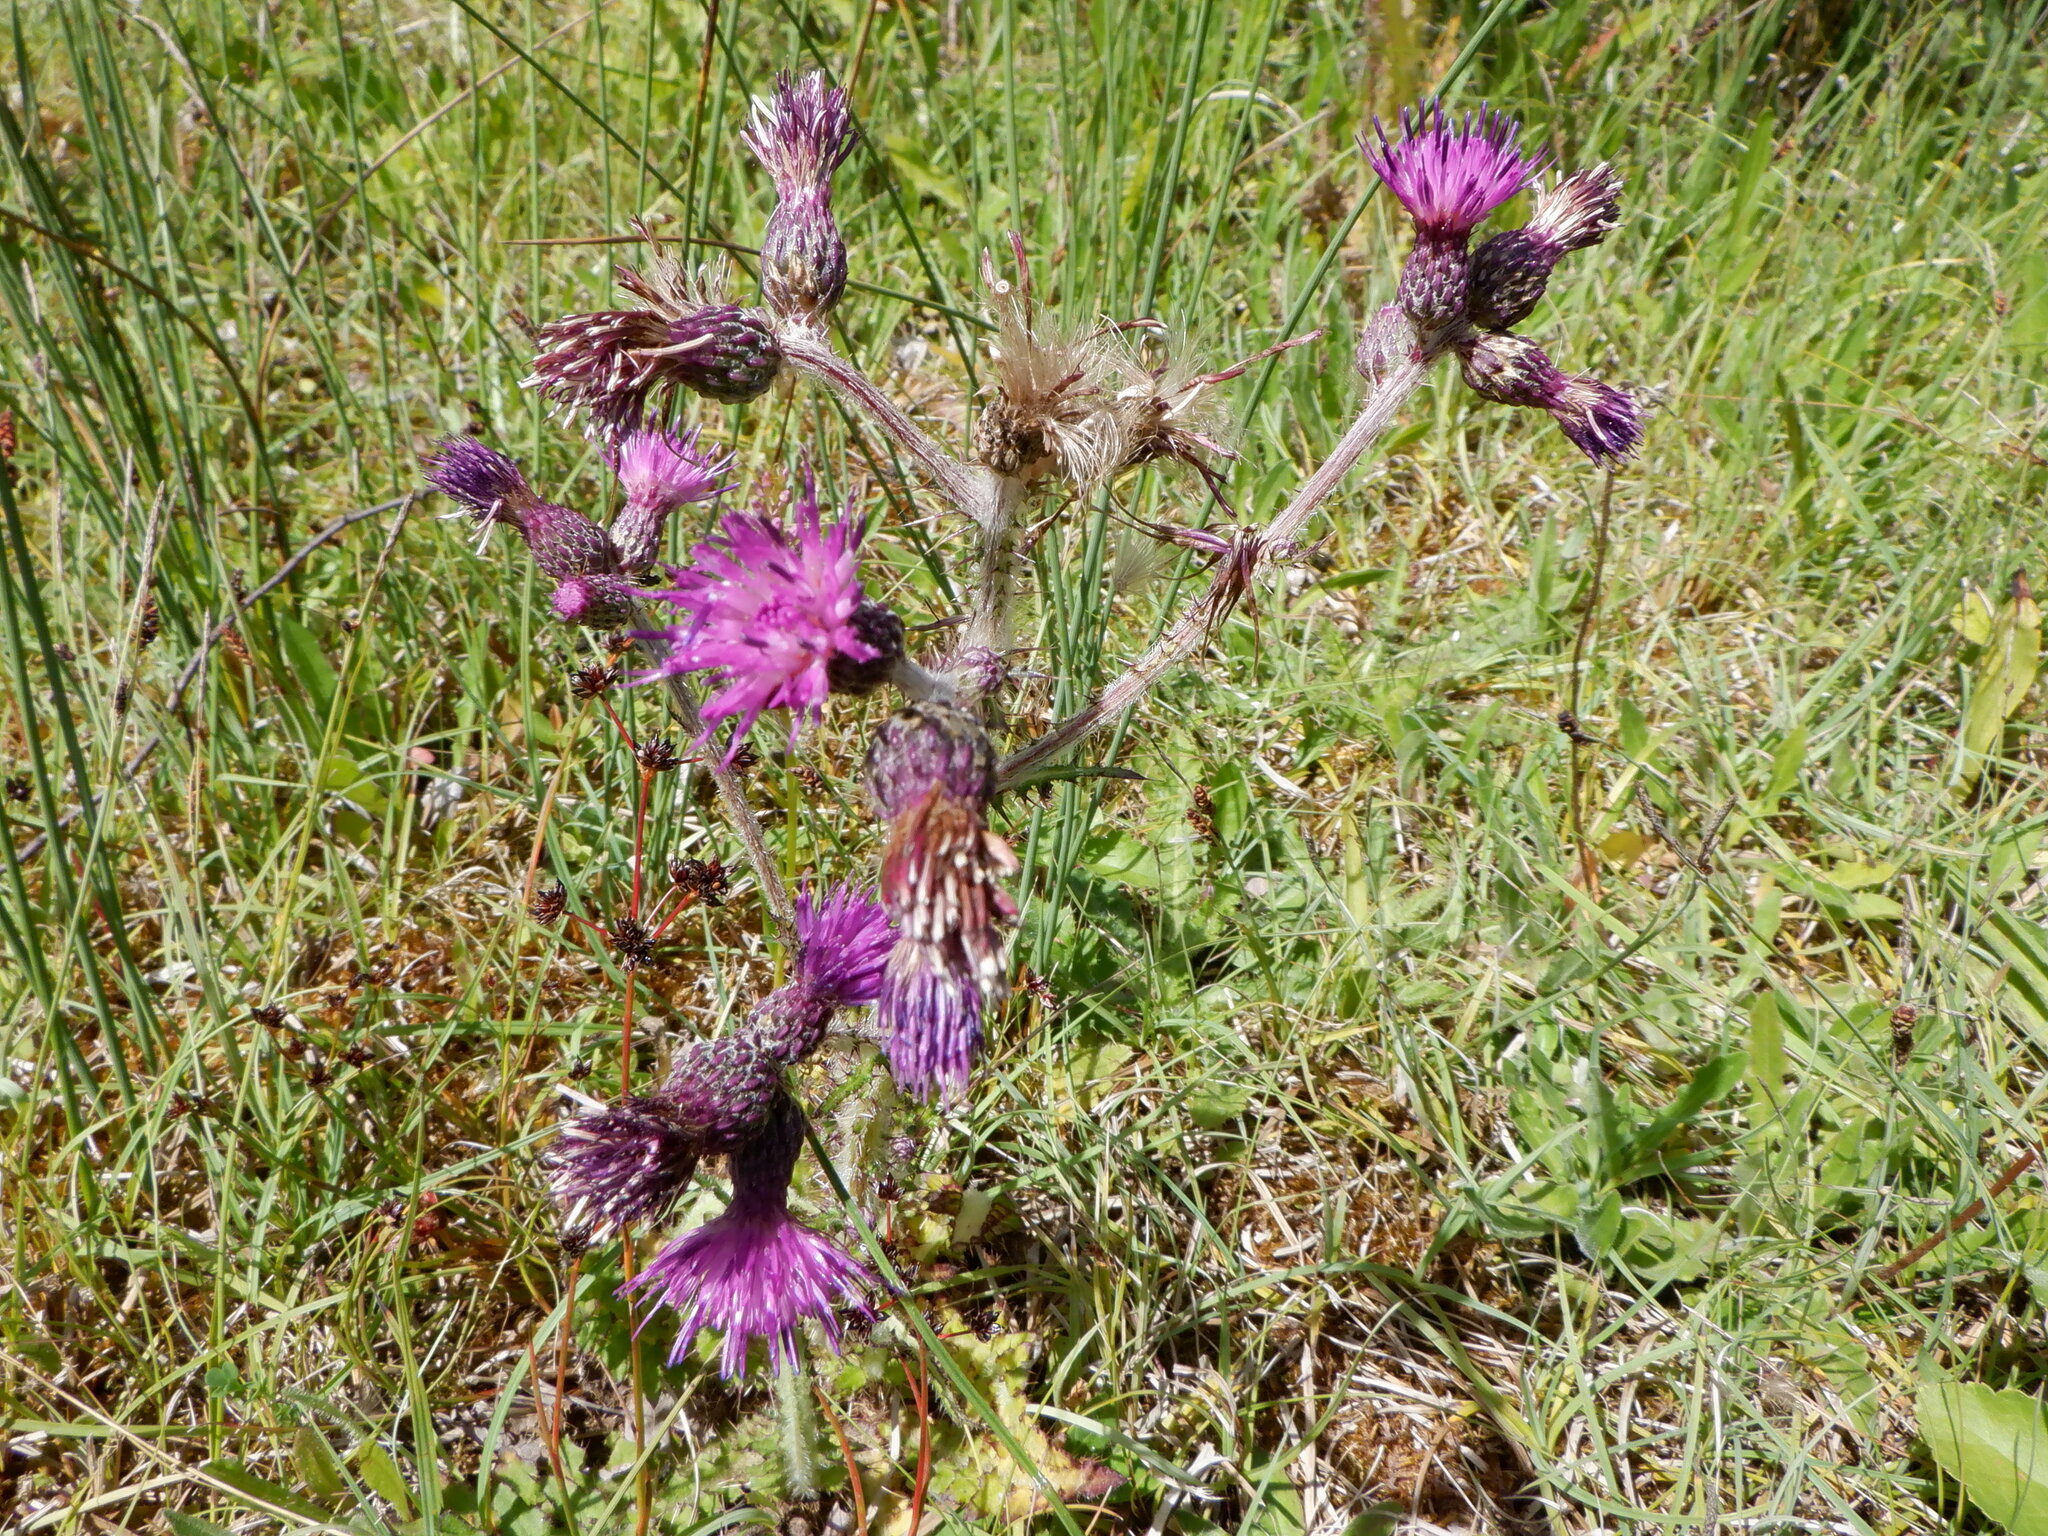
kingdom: Plantae
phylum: Tracheophyta
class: Magnoliopsida
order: Asterales
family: Asteraceae
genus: Cirsium
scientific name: Cirsium palustre
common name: Marsh thistle
